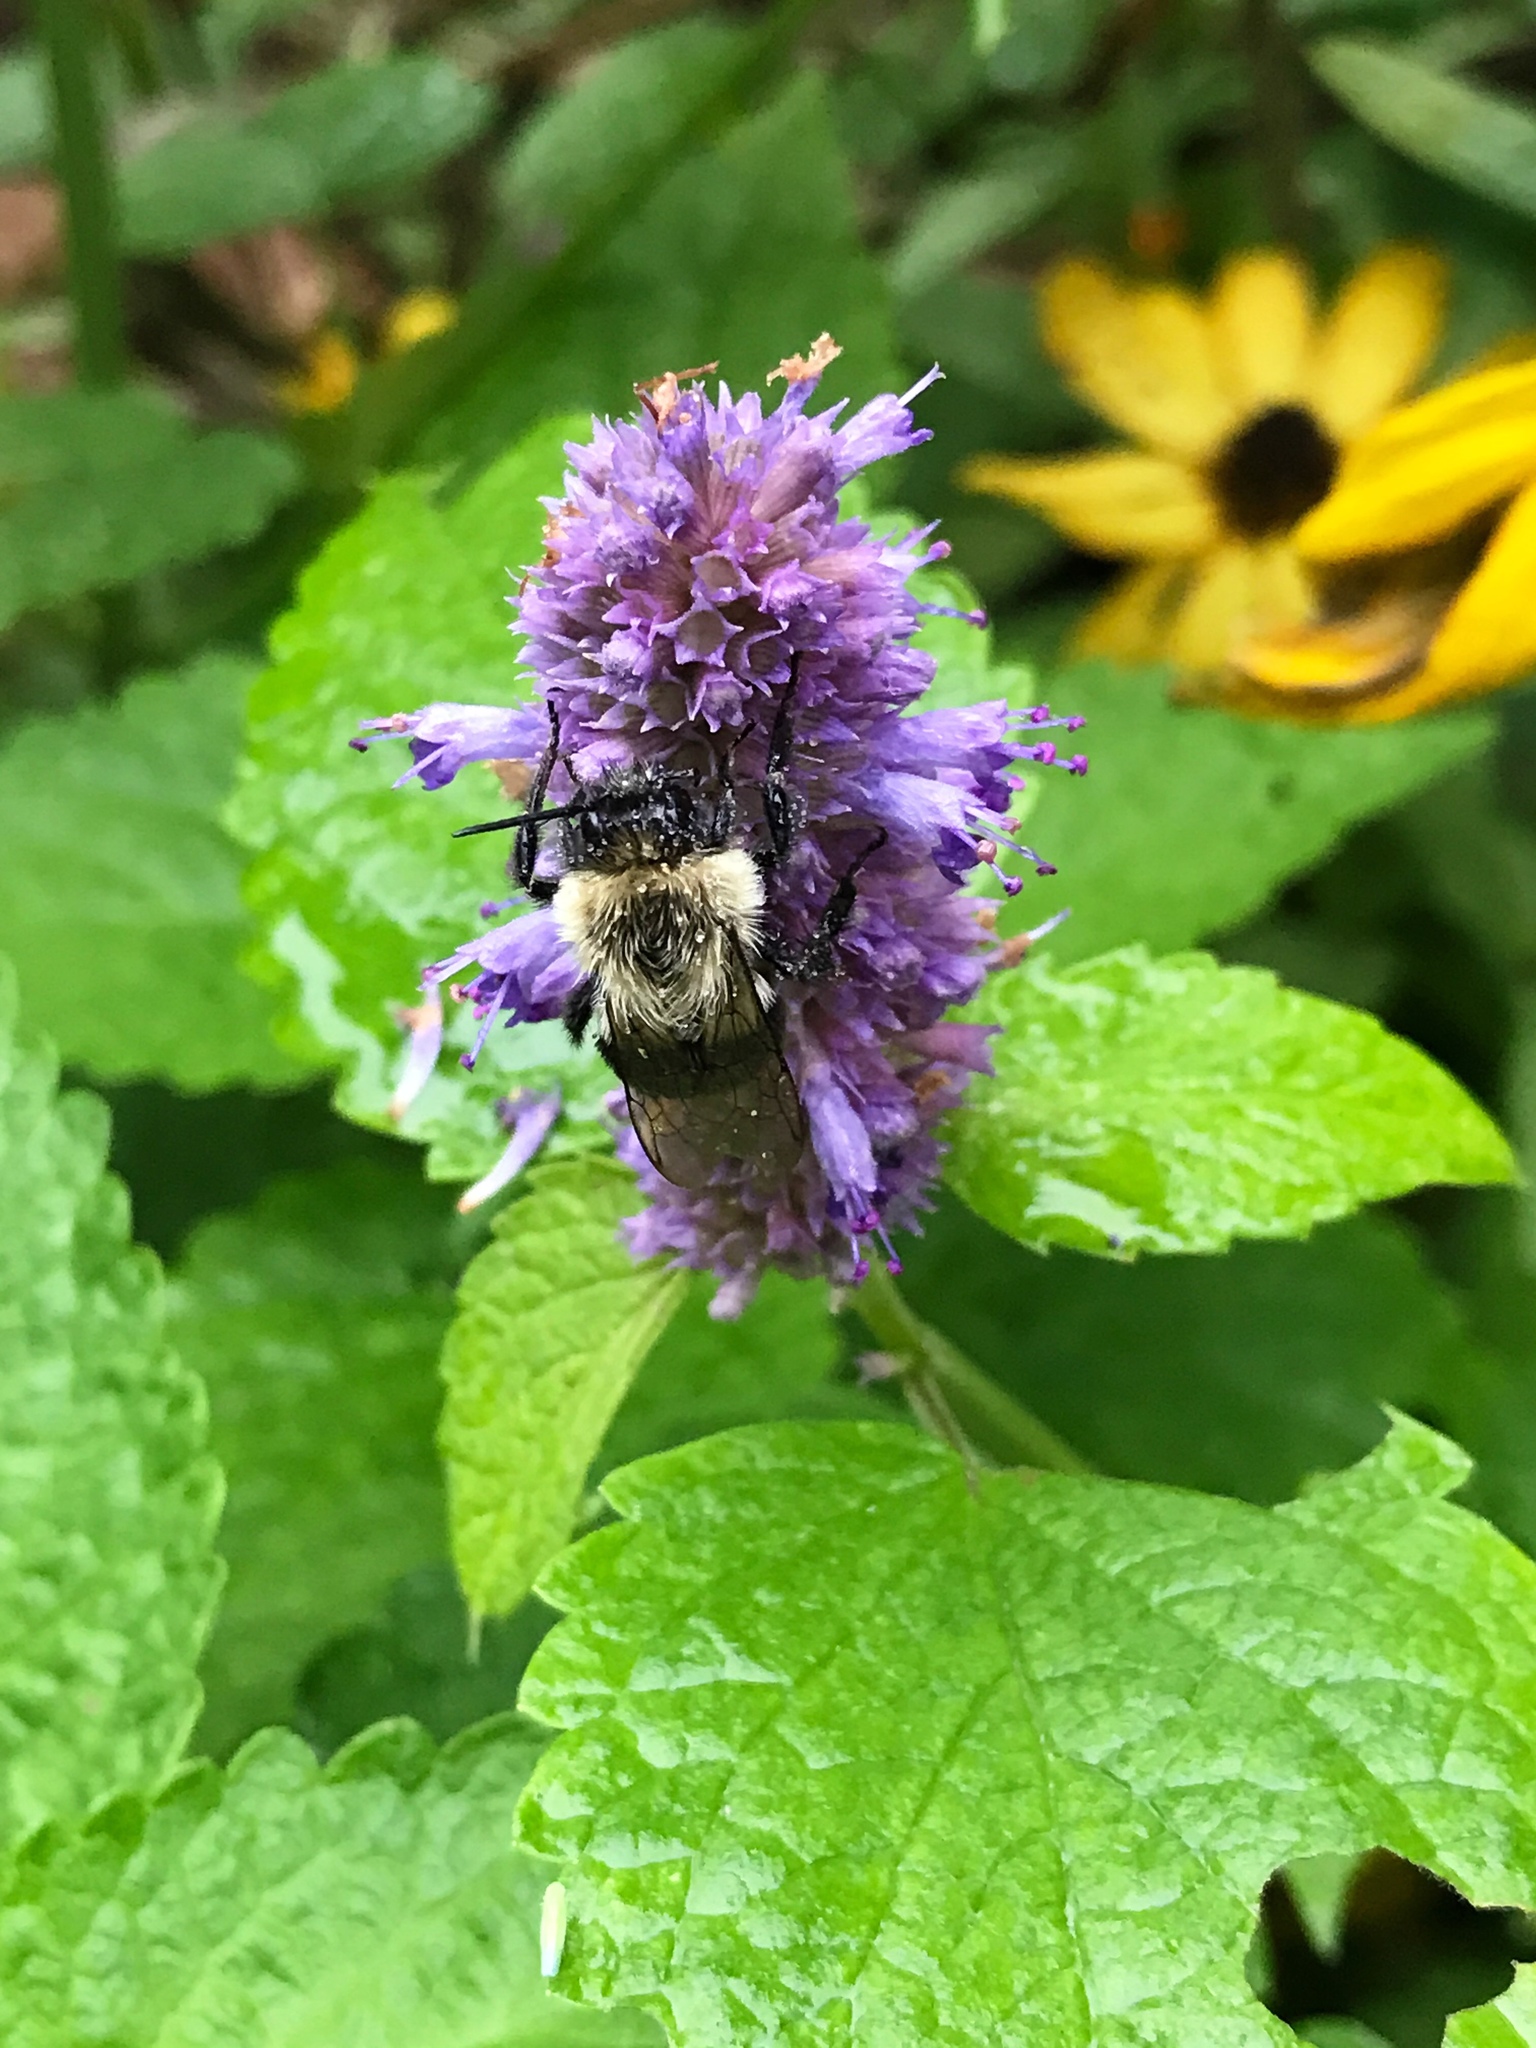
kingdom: Animalia
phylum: Arthropoda
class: Insecta
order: Hymenoptera
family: Apidae
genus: Bombus
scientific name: Bombus impatiens
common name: Common eastern bumble bee
